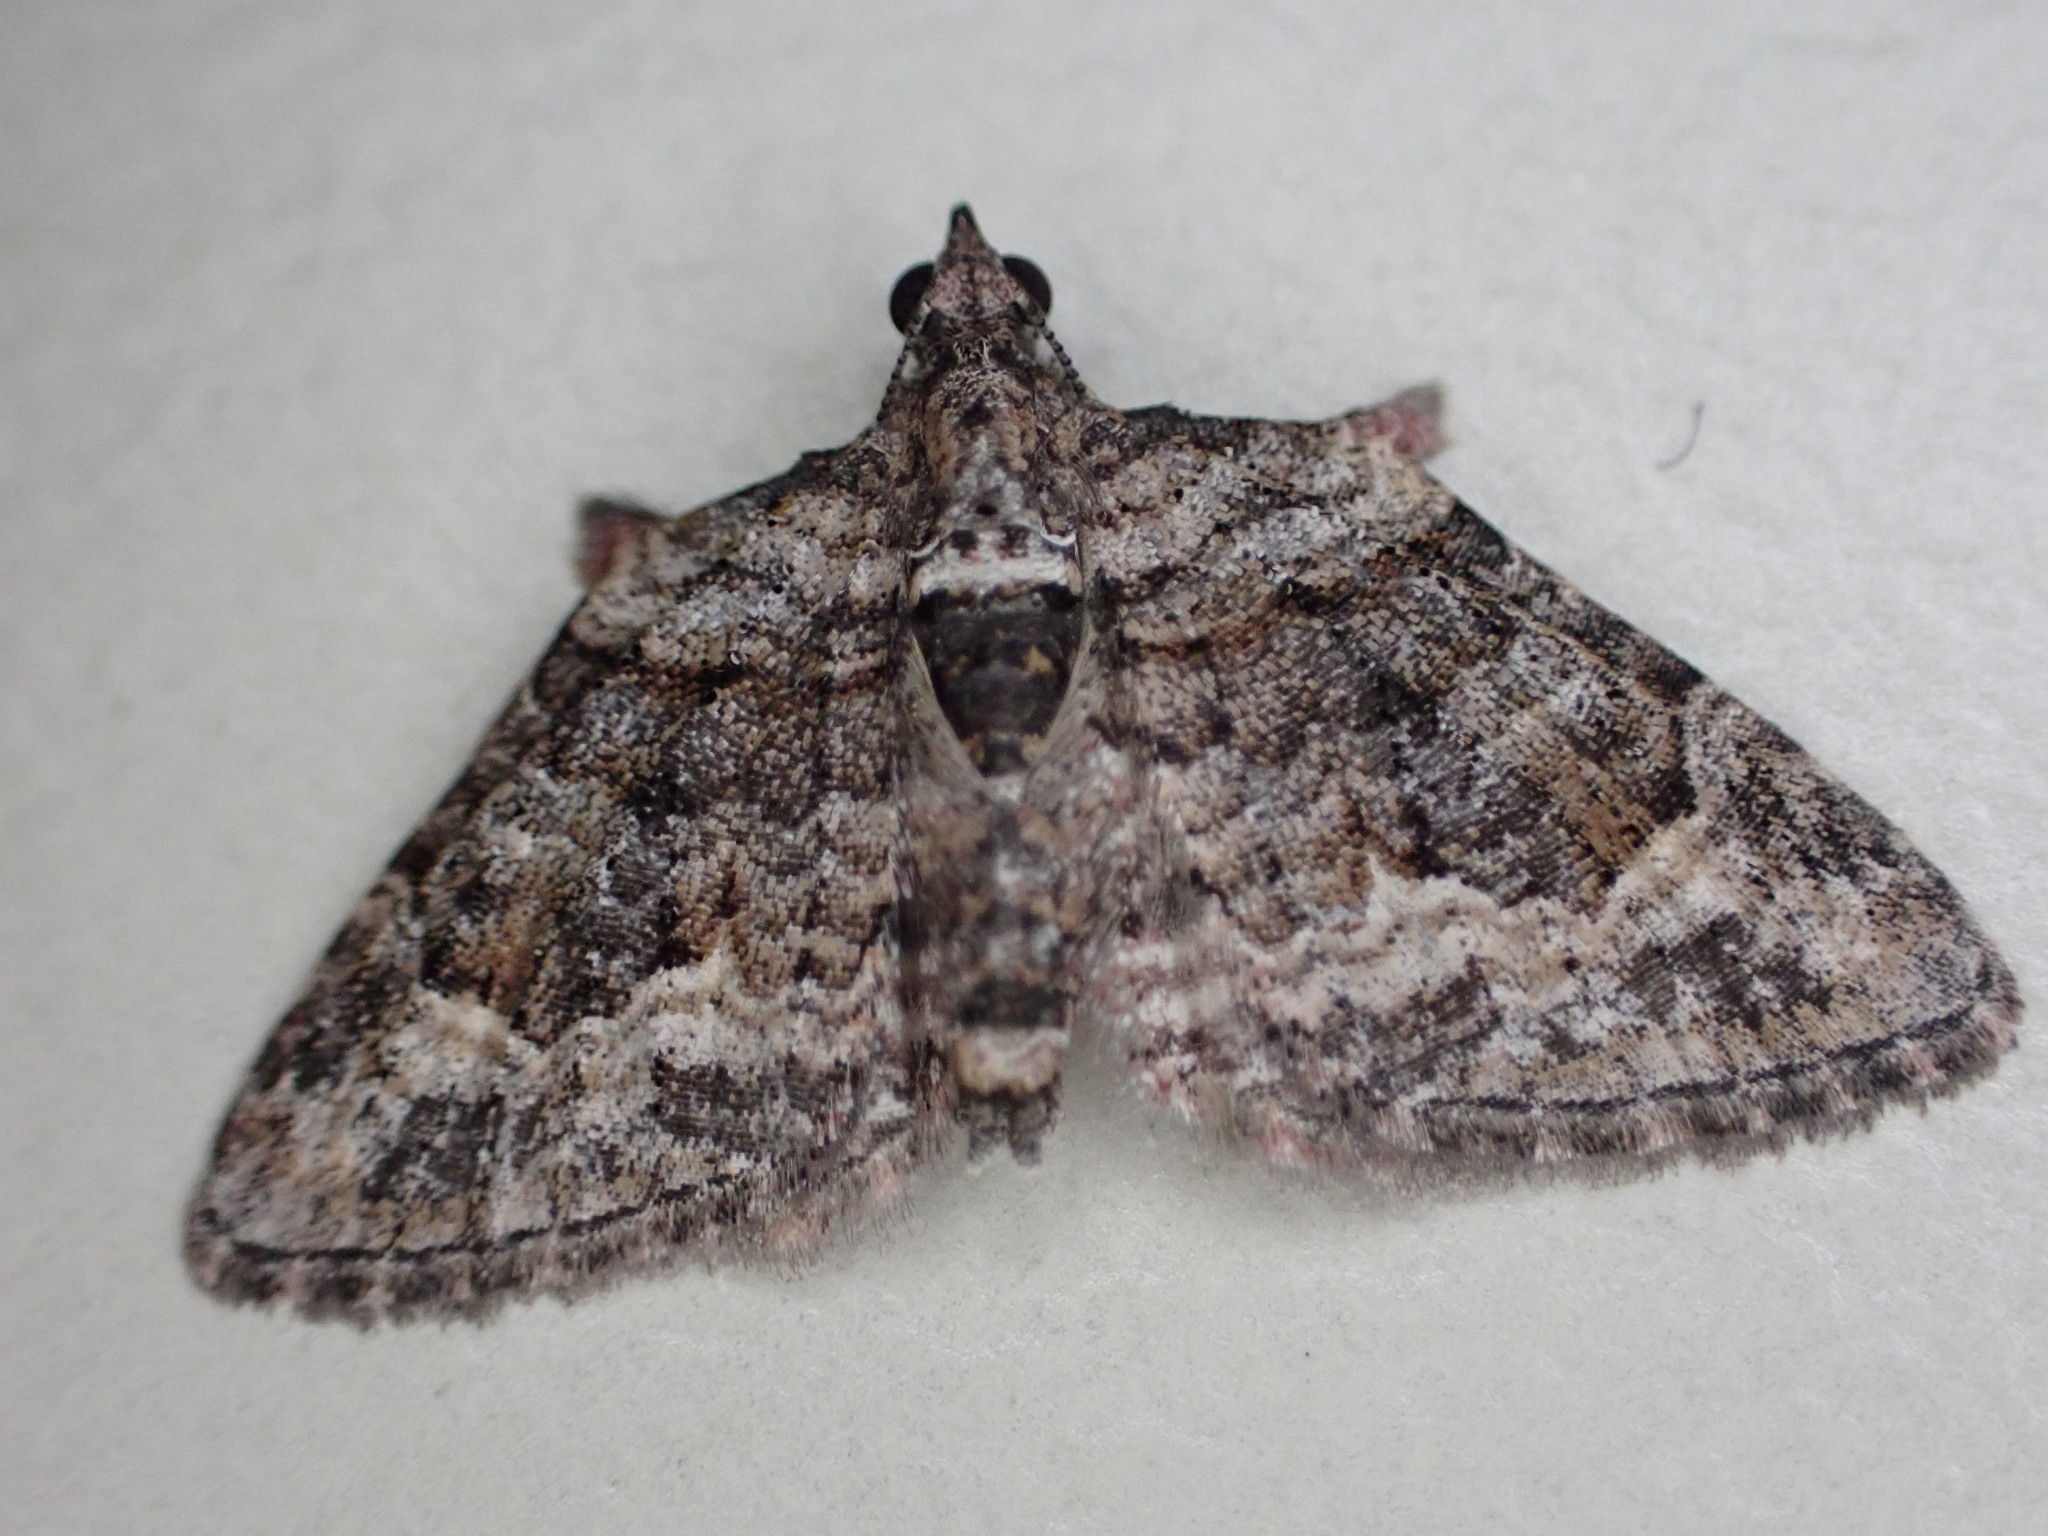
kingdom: Animalia
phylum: Arthropoda
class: Insecta
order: Lepidoptera
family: Geometridae
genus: Phrissogonus
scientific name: Phrissogonus laticostata
